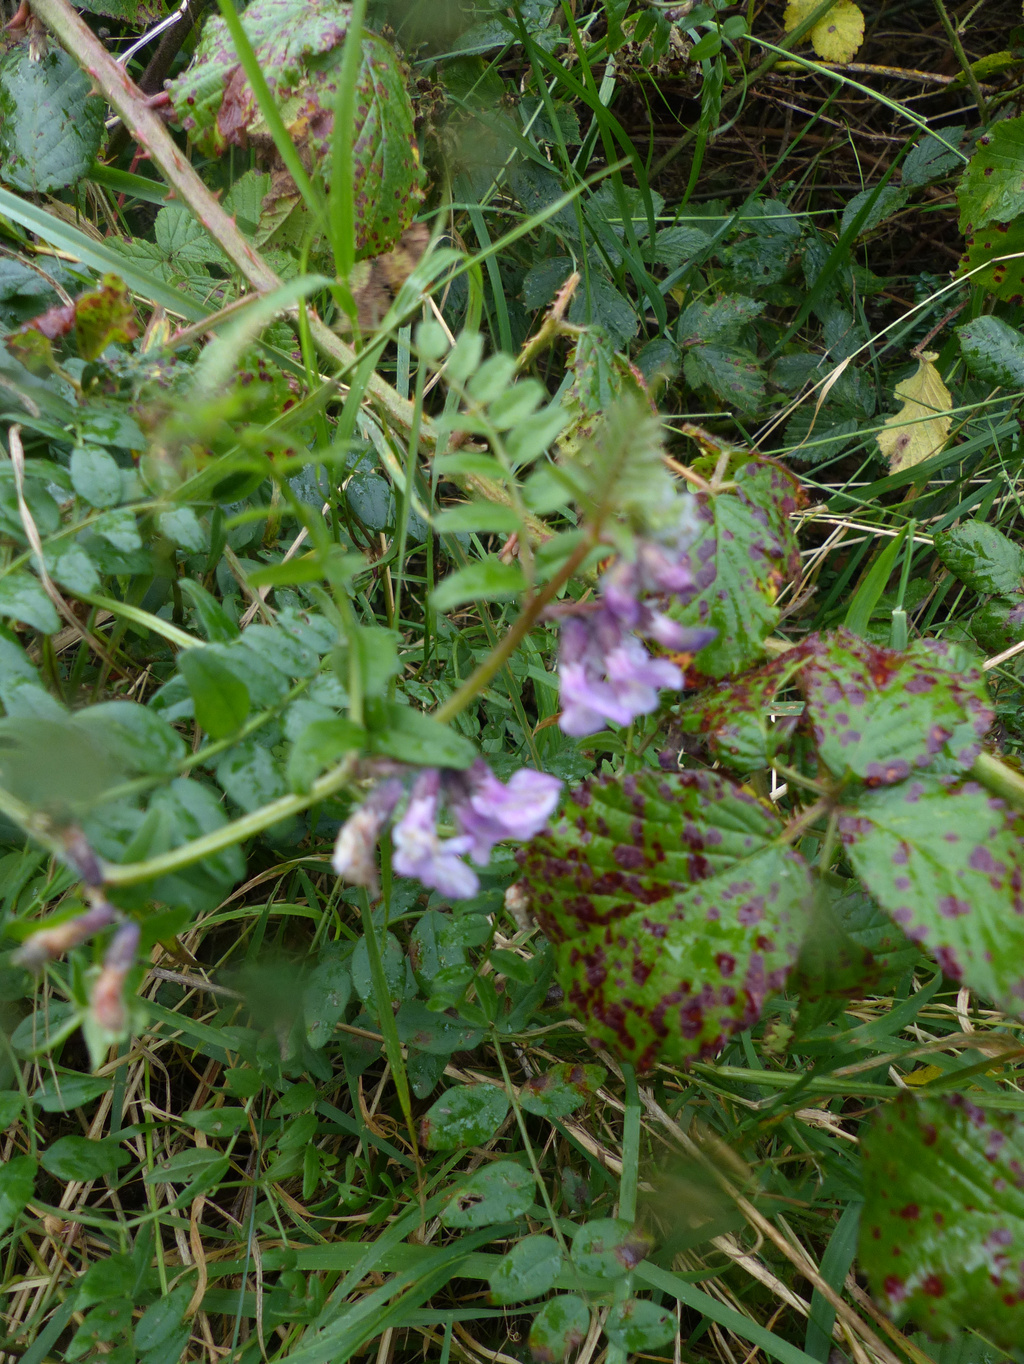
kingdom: Plantae
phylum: Tracheophyta
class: Magnoliopsida
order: Fabales
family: Fabaceae
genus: Vicia
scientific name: Vicia sepium
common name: Bush vetch
